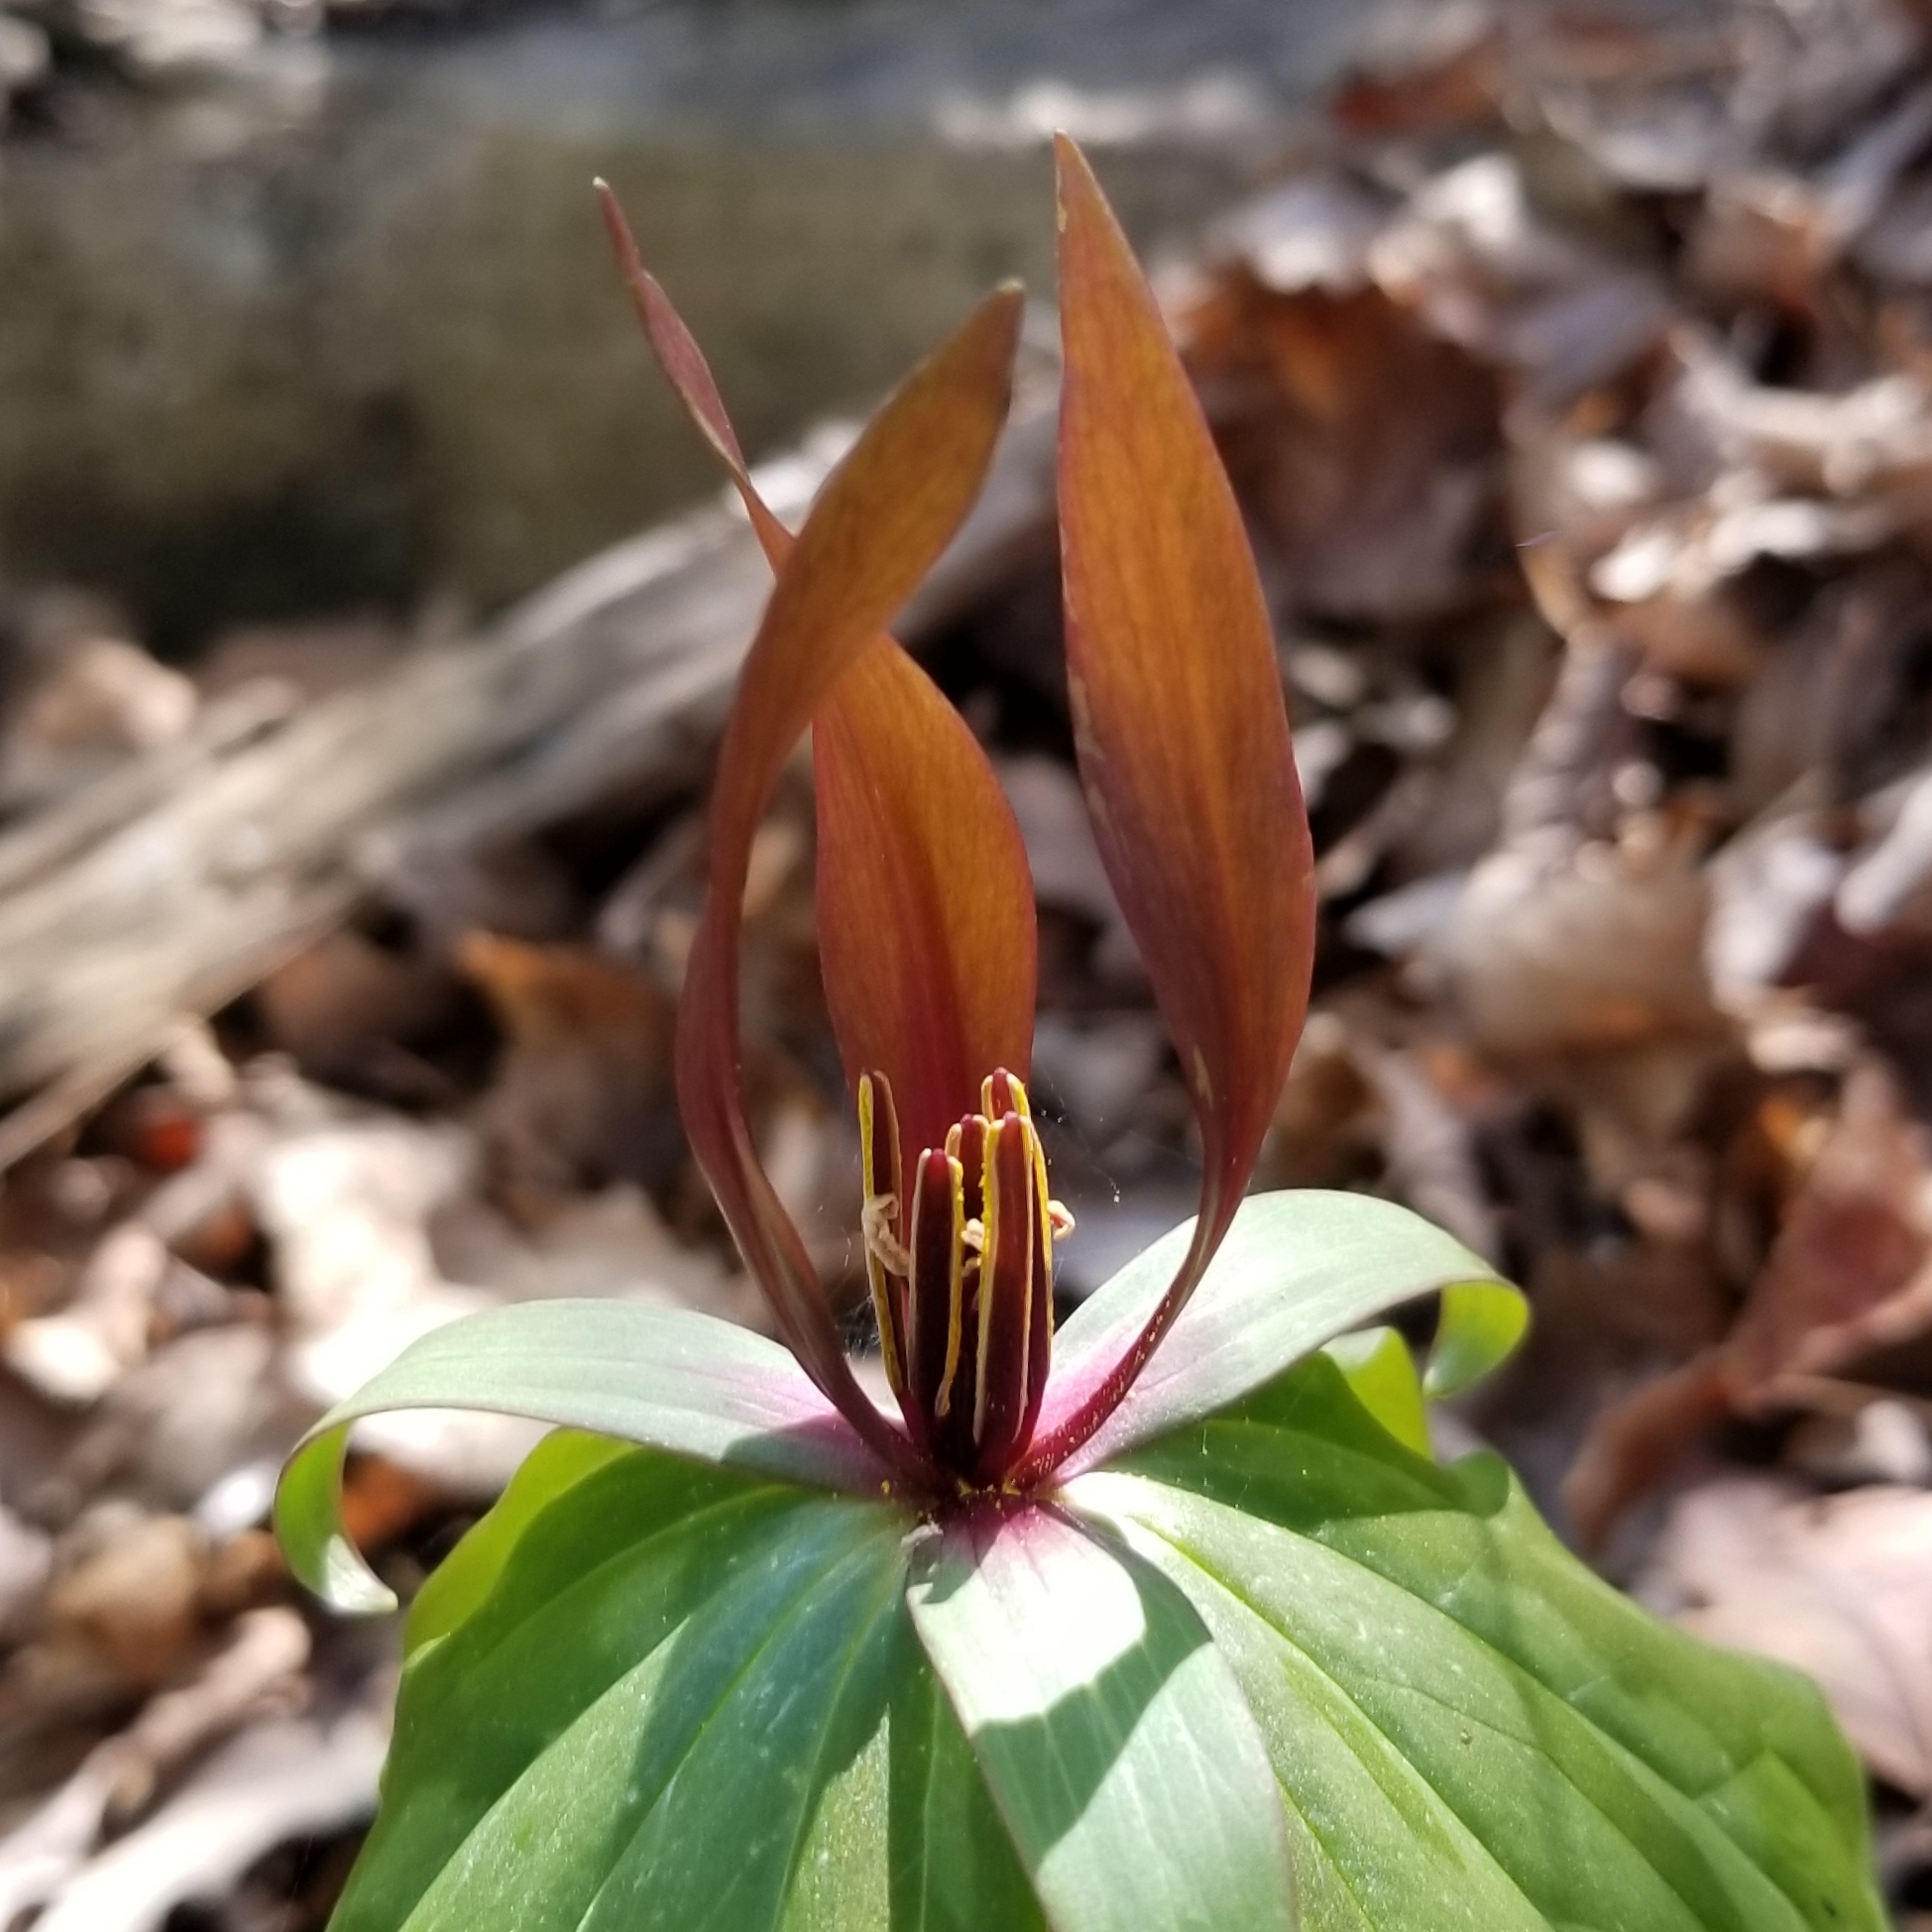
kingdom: Plantae
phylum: Tracheophyta
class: Liliopsida
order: Liliales
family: Melanthiaceae
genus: Trillium
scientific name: Trillium cuneatum
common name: Cuneate trillium
